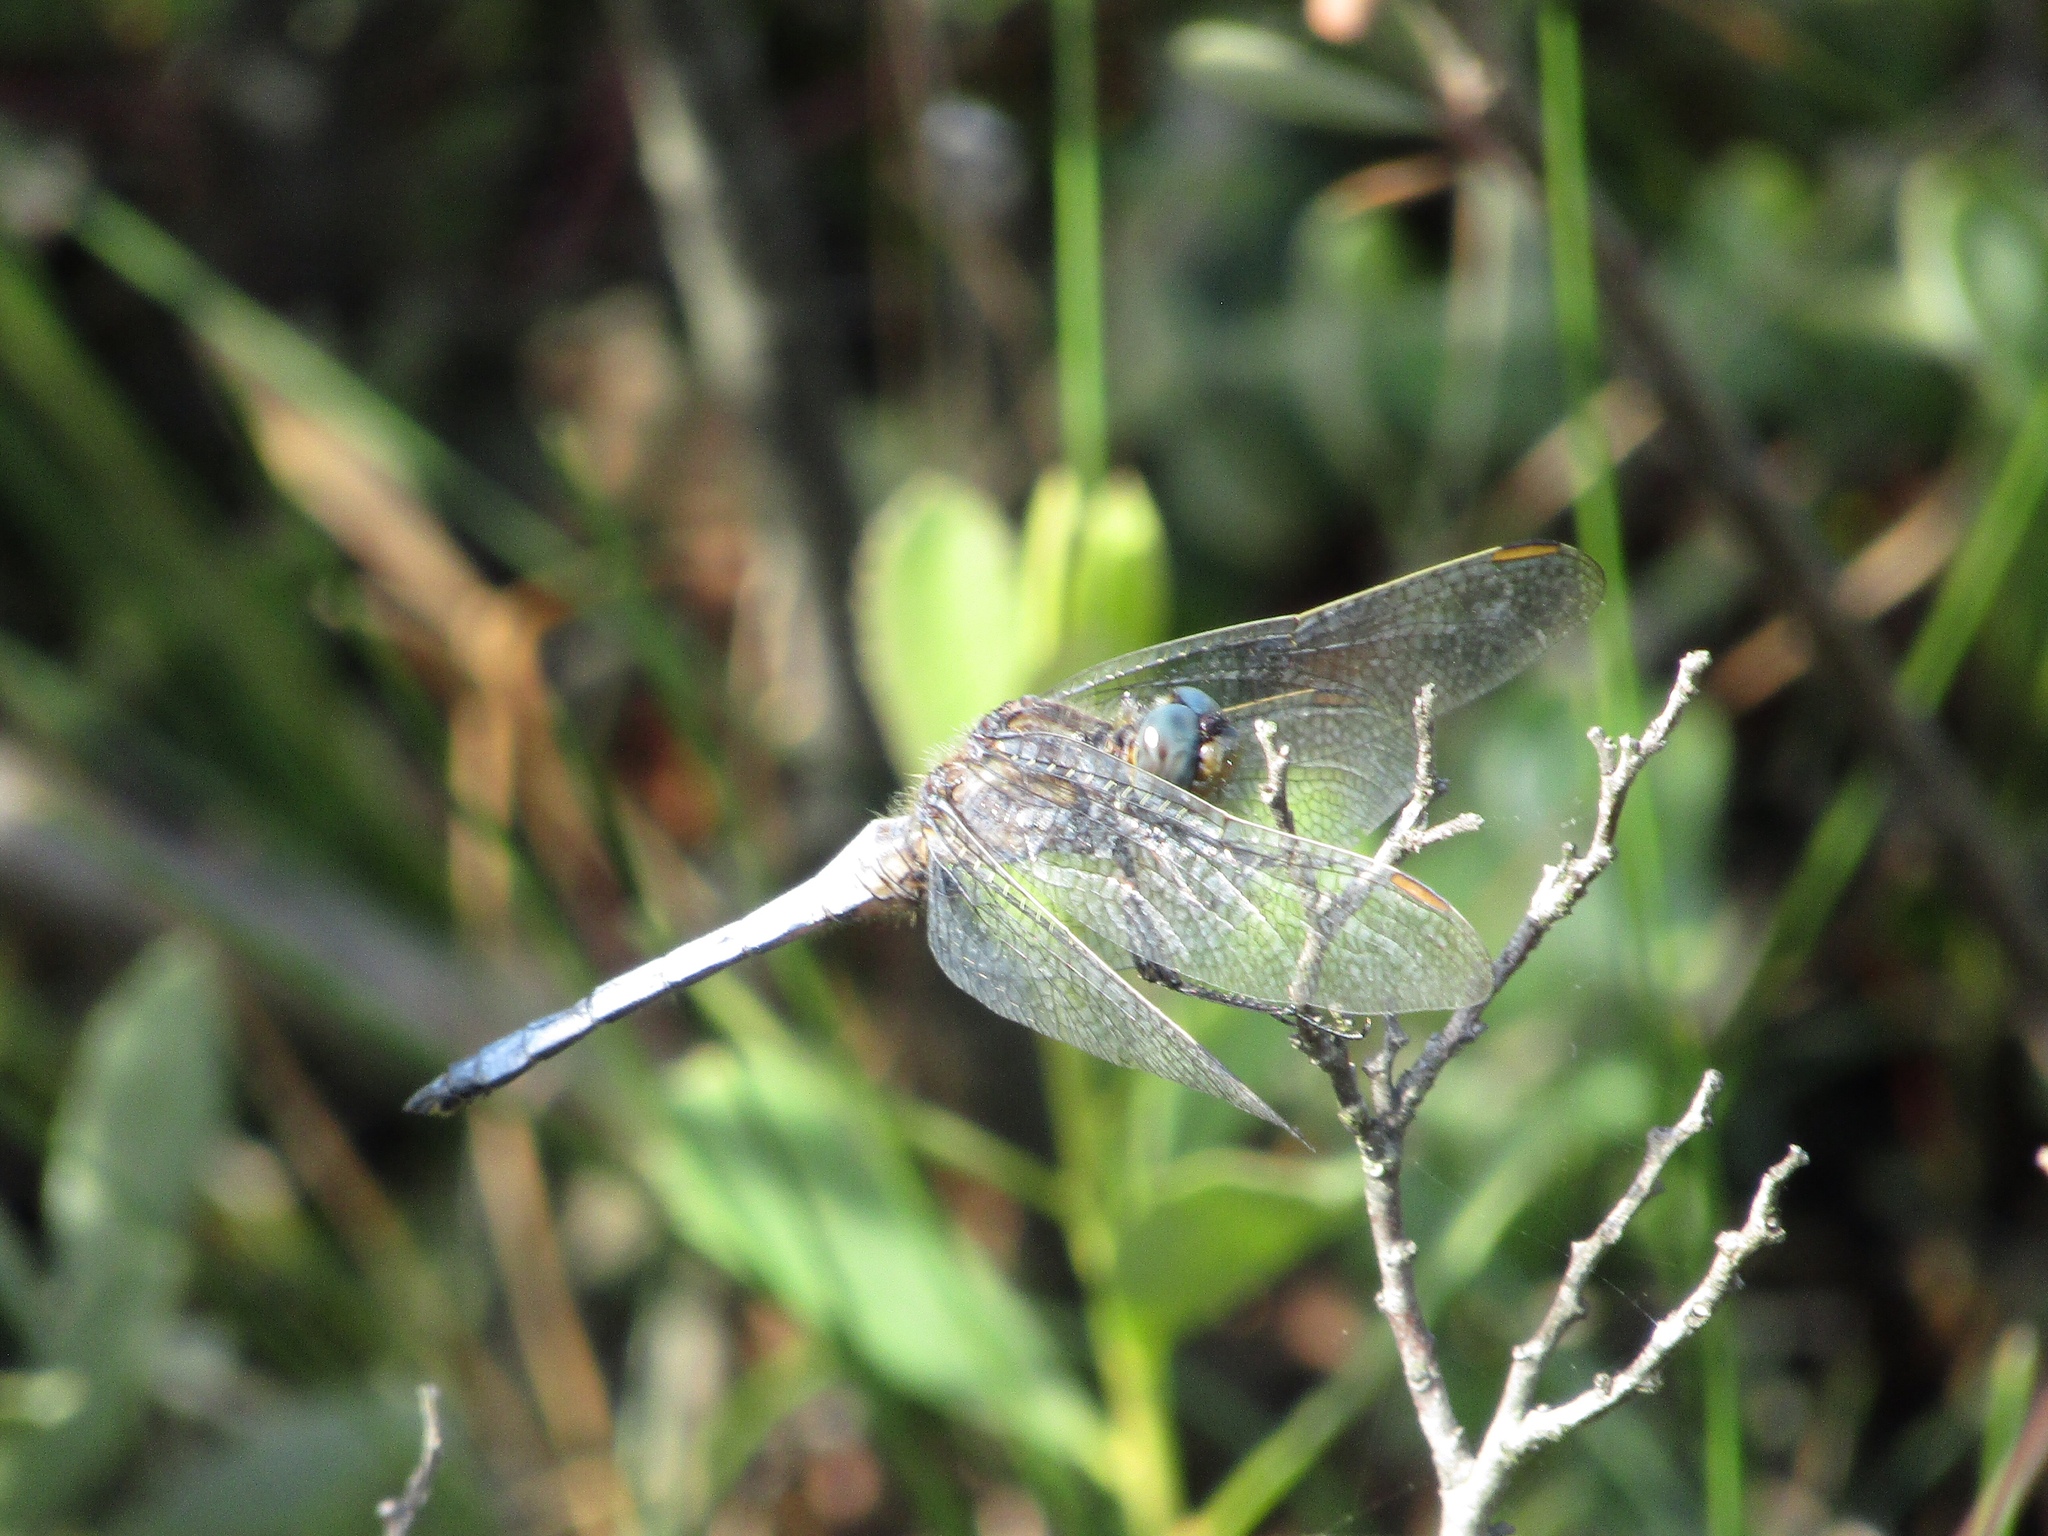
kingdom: Animalia
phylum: Arthropoda
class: Insecta
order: Odonata
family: Libellulidae
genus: Orthetrum
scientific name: Orthetrum coerulescens
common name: Keeled skimmer
